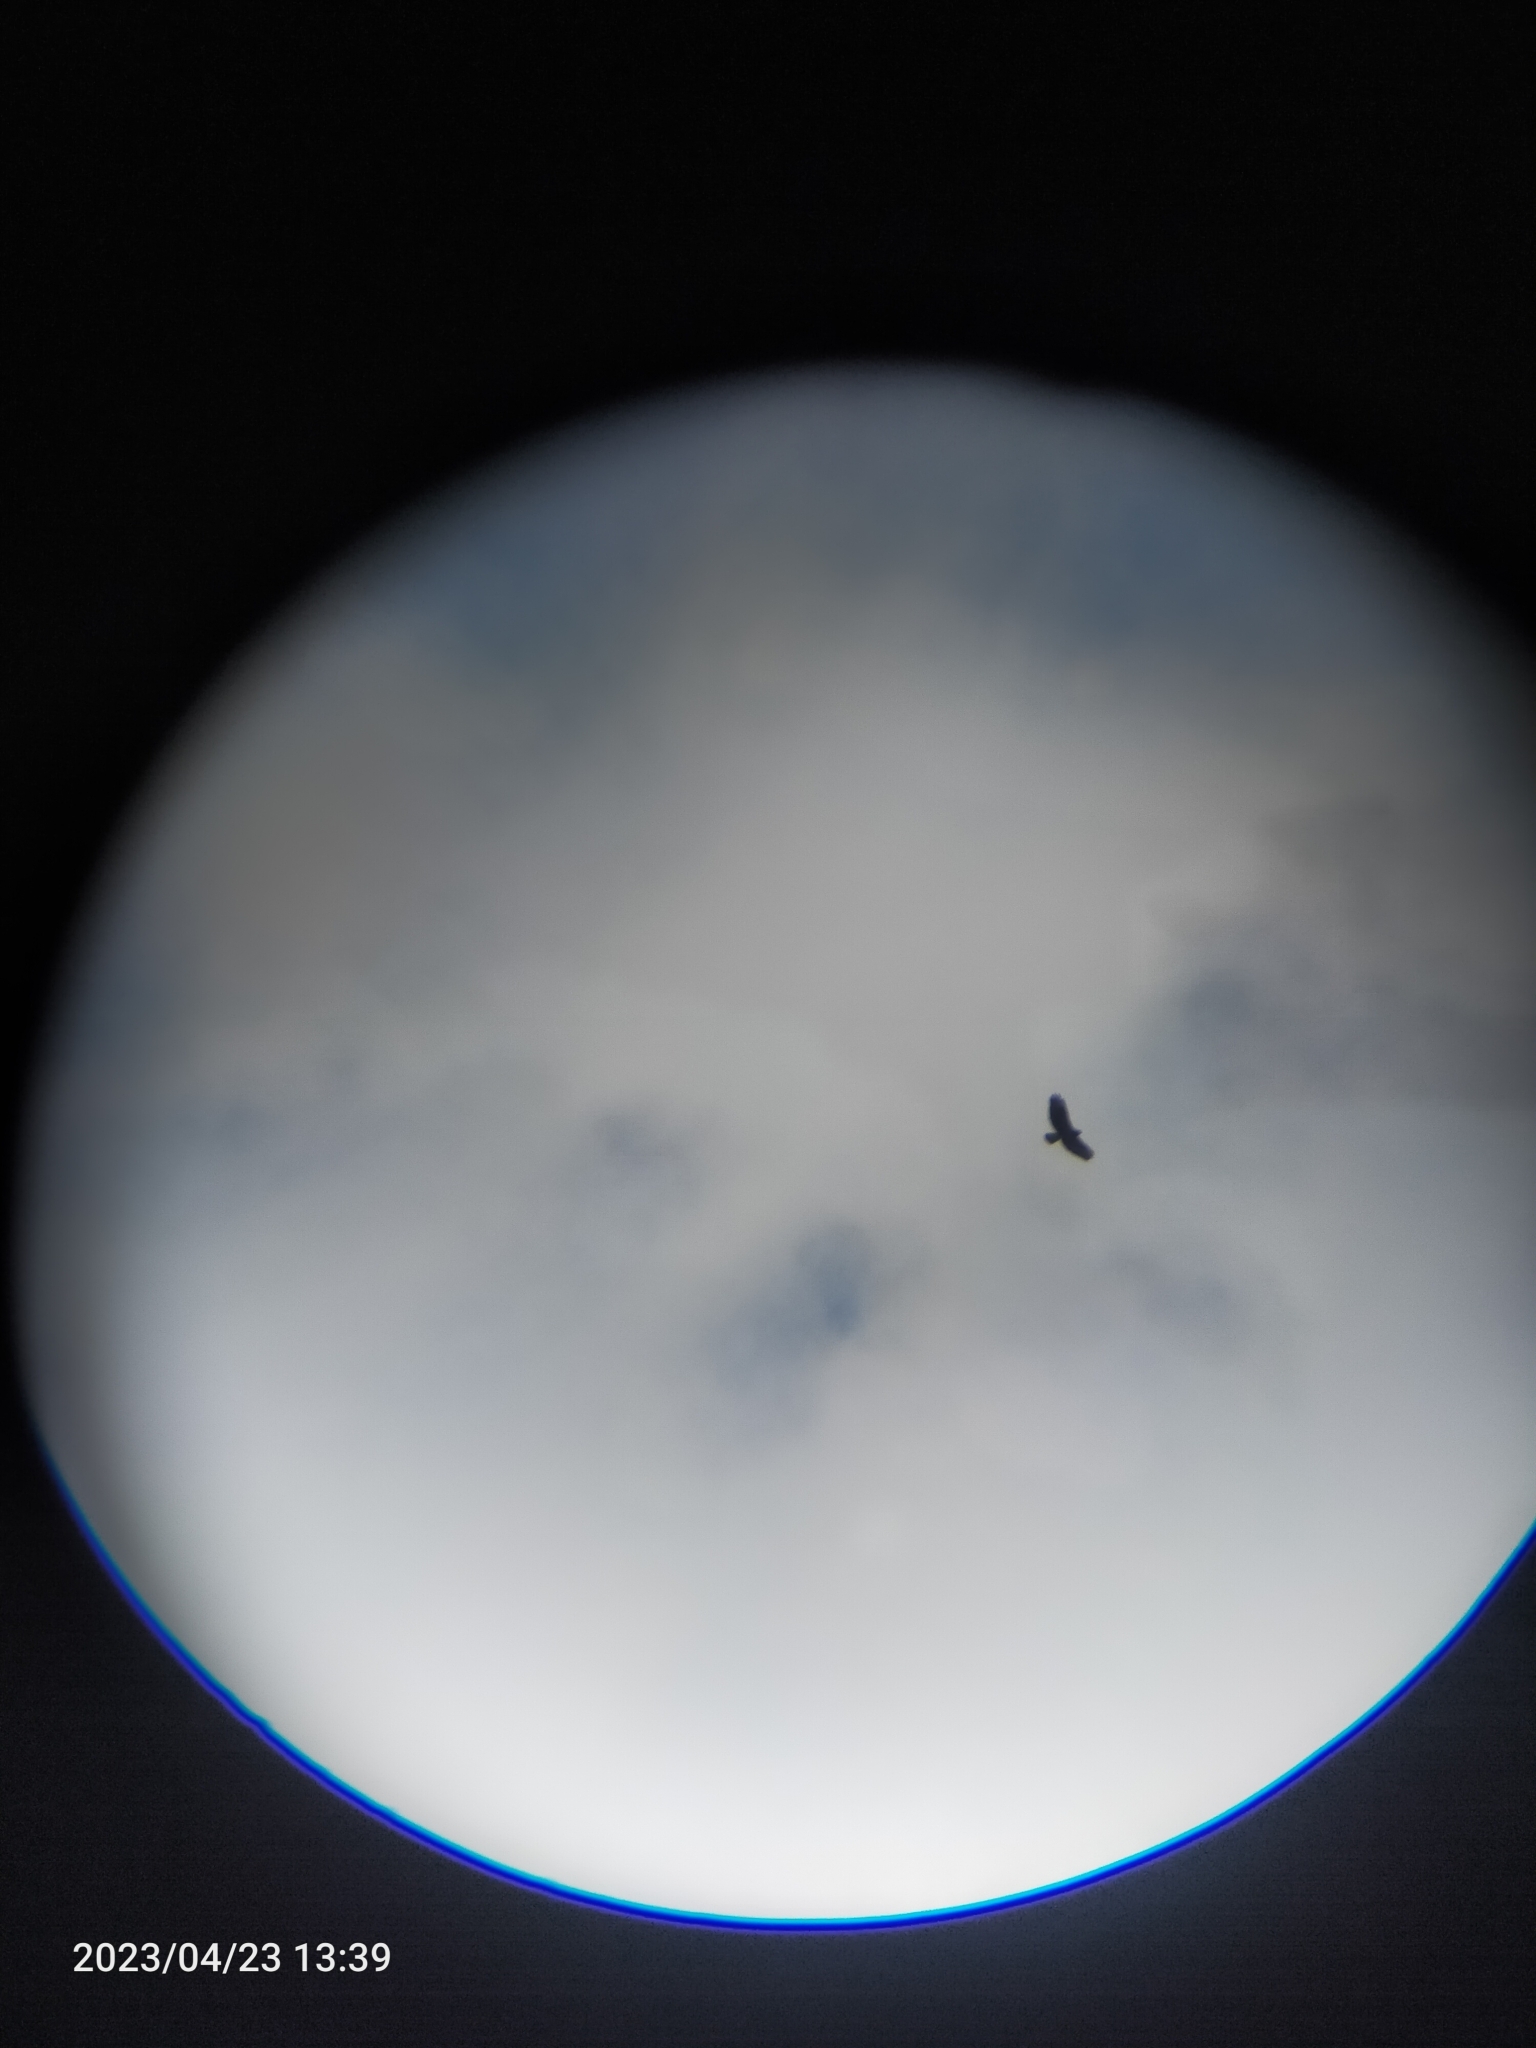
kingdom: Animalia
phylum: Chordata
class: Aves
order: Accipitriformes
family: Accipitridae
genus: Buteo
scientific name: Buteo buteo
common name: Common buzzard
